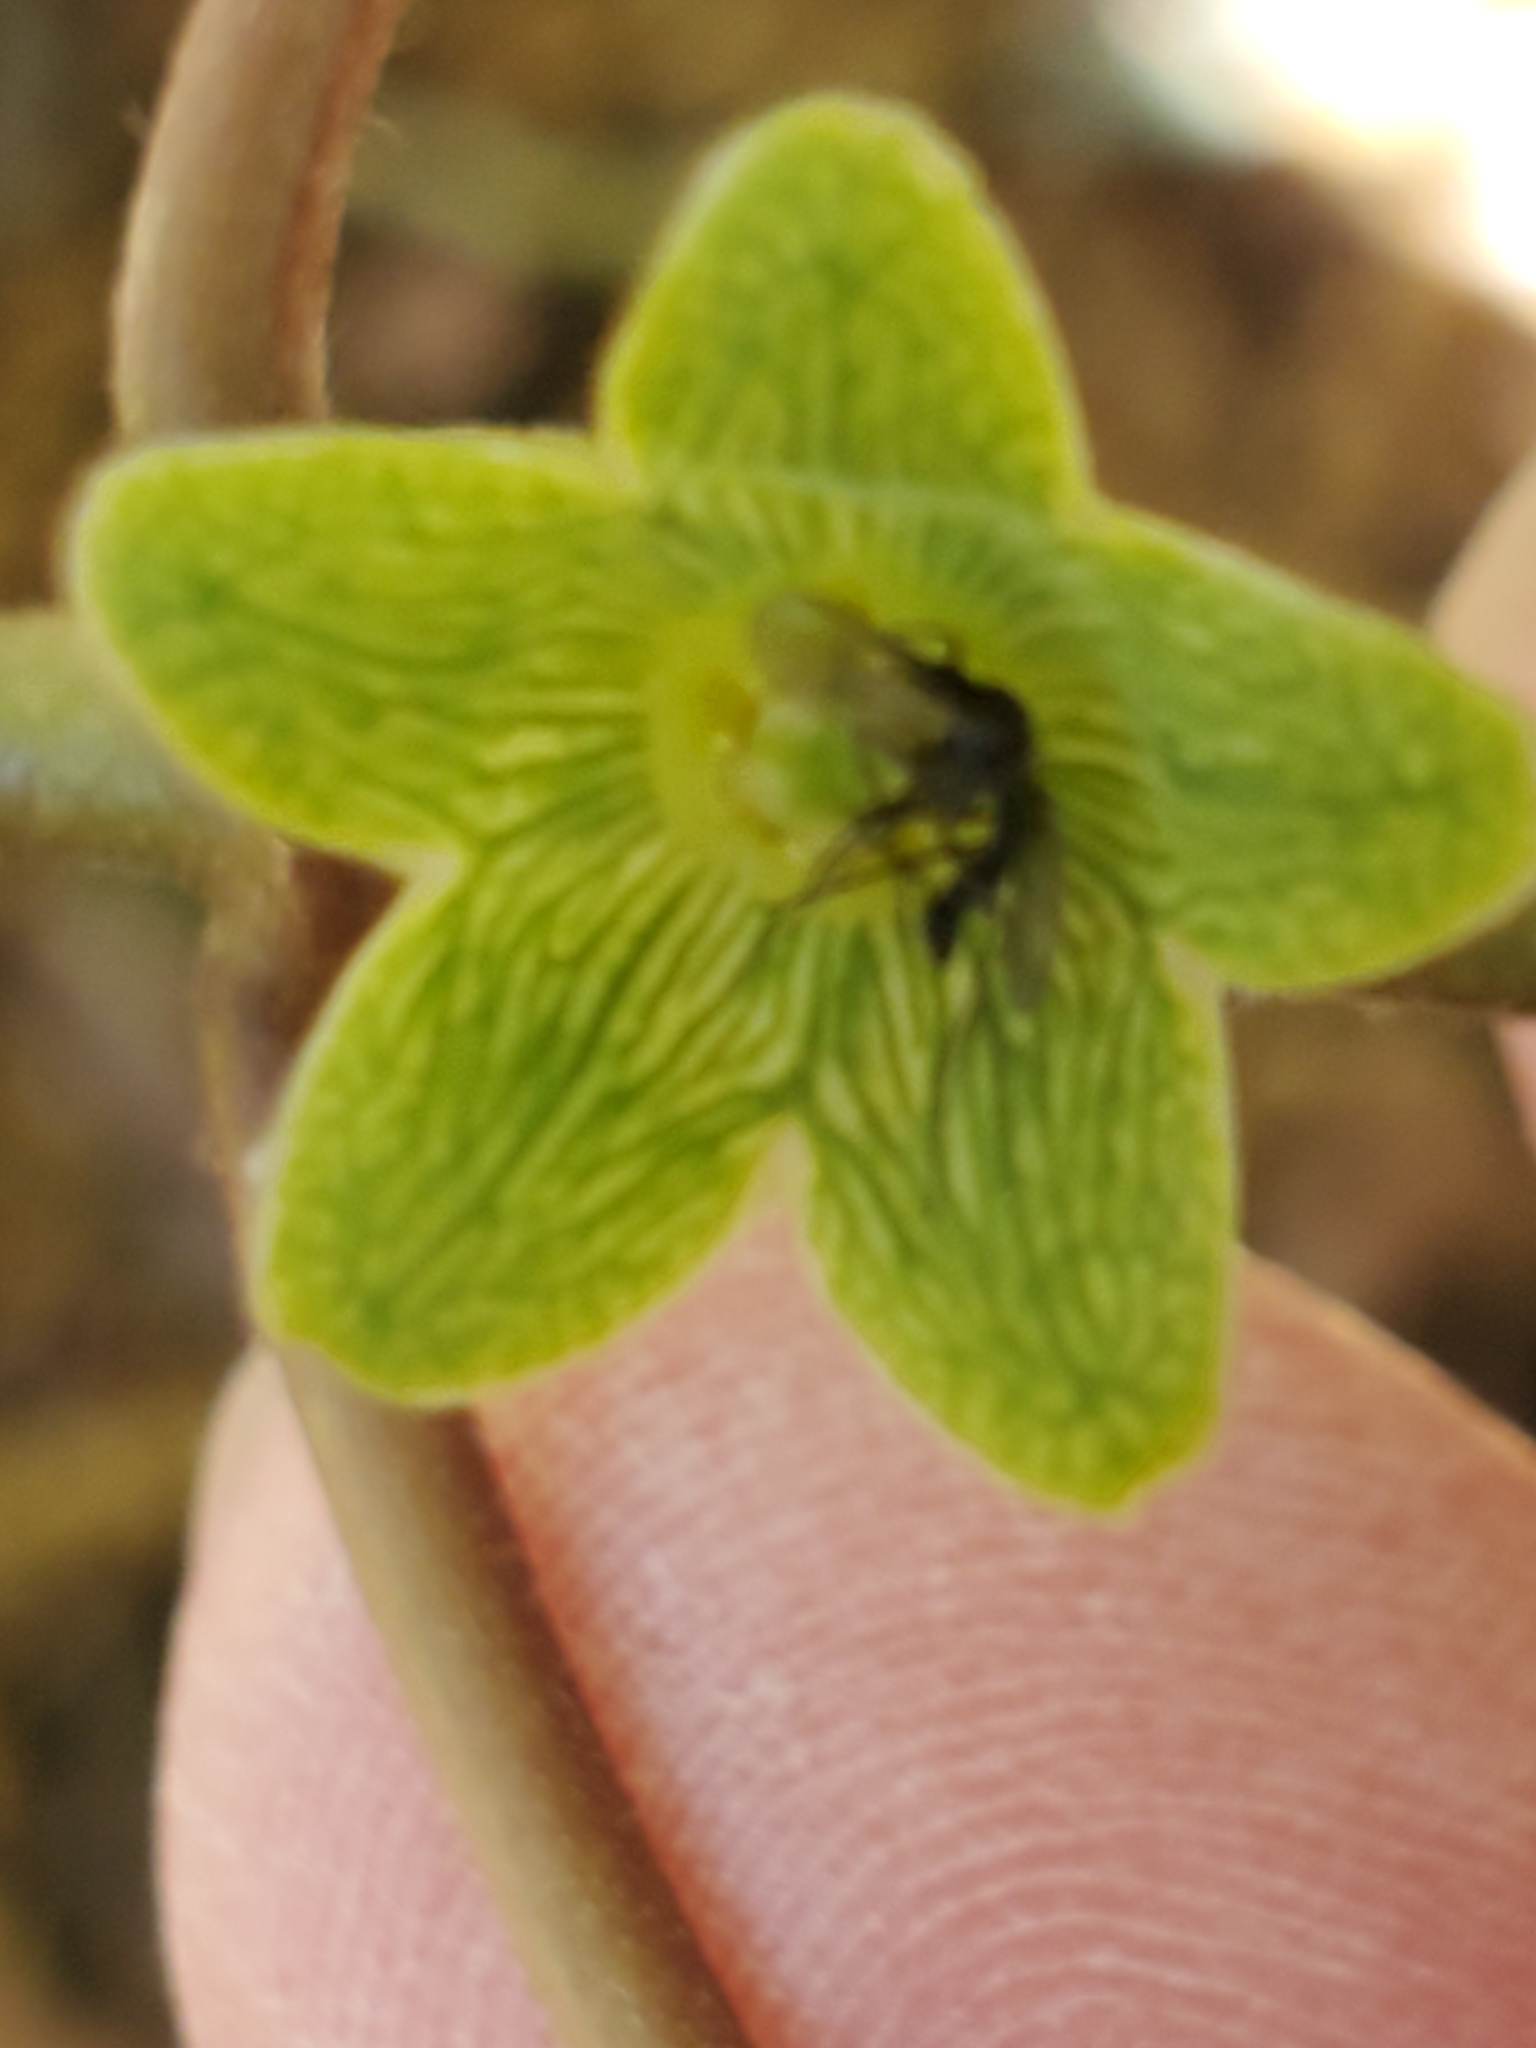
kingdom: Plantae
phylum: Tracheophyta
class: Magnoliopsida
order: Gentianales
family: Apocynaceae
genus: Matelea
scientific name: Matelea edwardsensis
